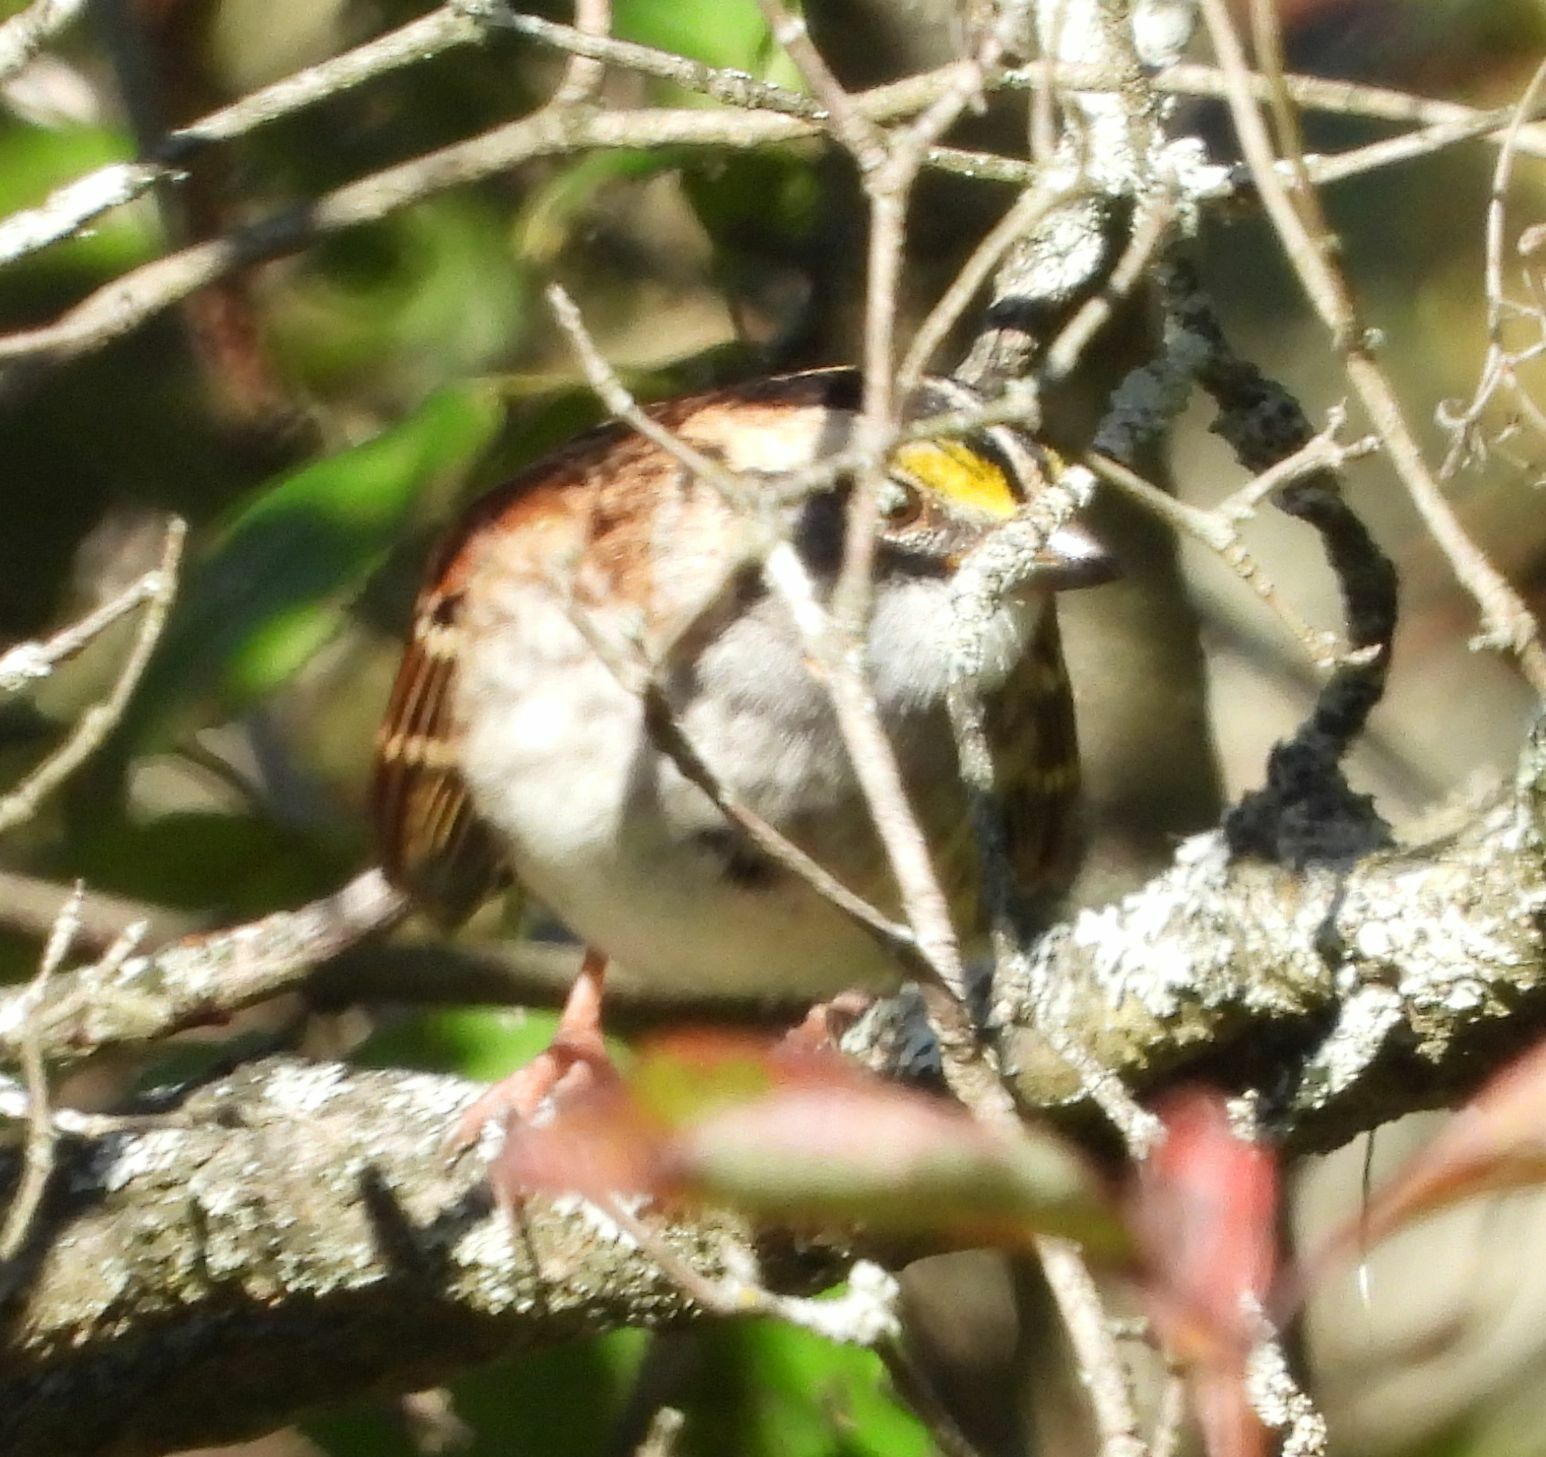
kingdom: Animalia
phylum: Chordata
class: Aves
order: Passeriformes
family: Passerellidae
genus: Zonotrichia
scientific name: Zonotrichia albicollis
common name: White-throated sparrow
